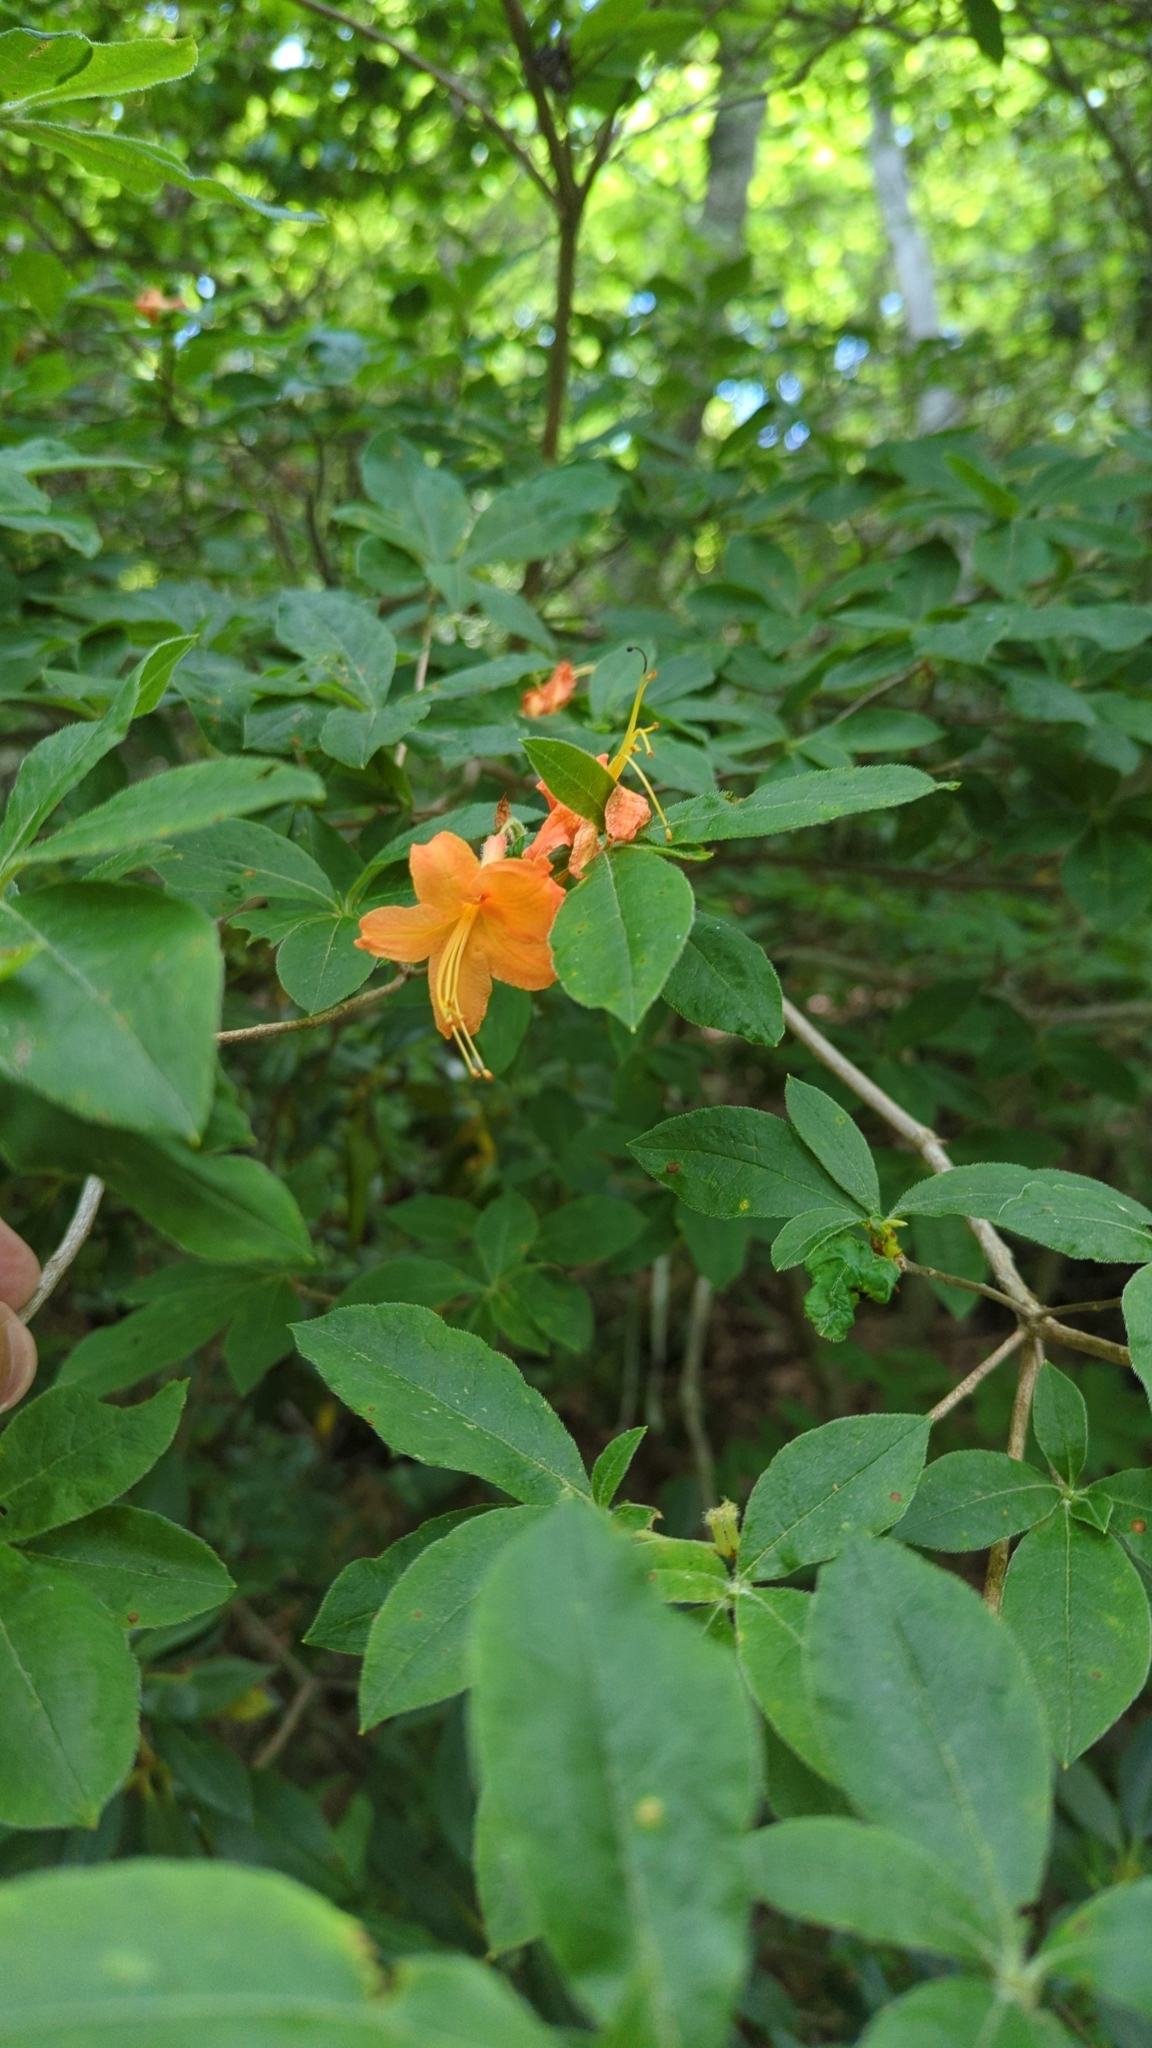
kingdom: Plantae
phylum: Tracheophyta
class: Magnoliopsida
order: Ericales
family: Ericaceae
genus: Rhododendron
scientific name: Rhododendron calendulaceum
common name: Flame azalea
